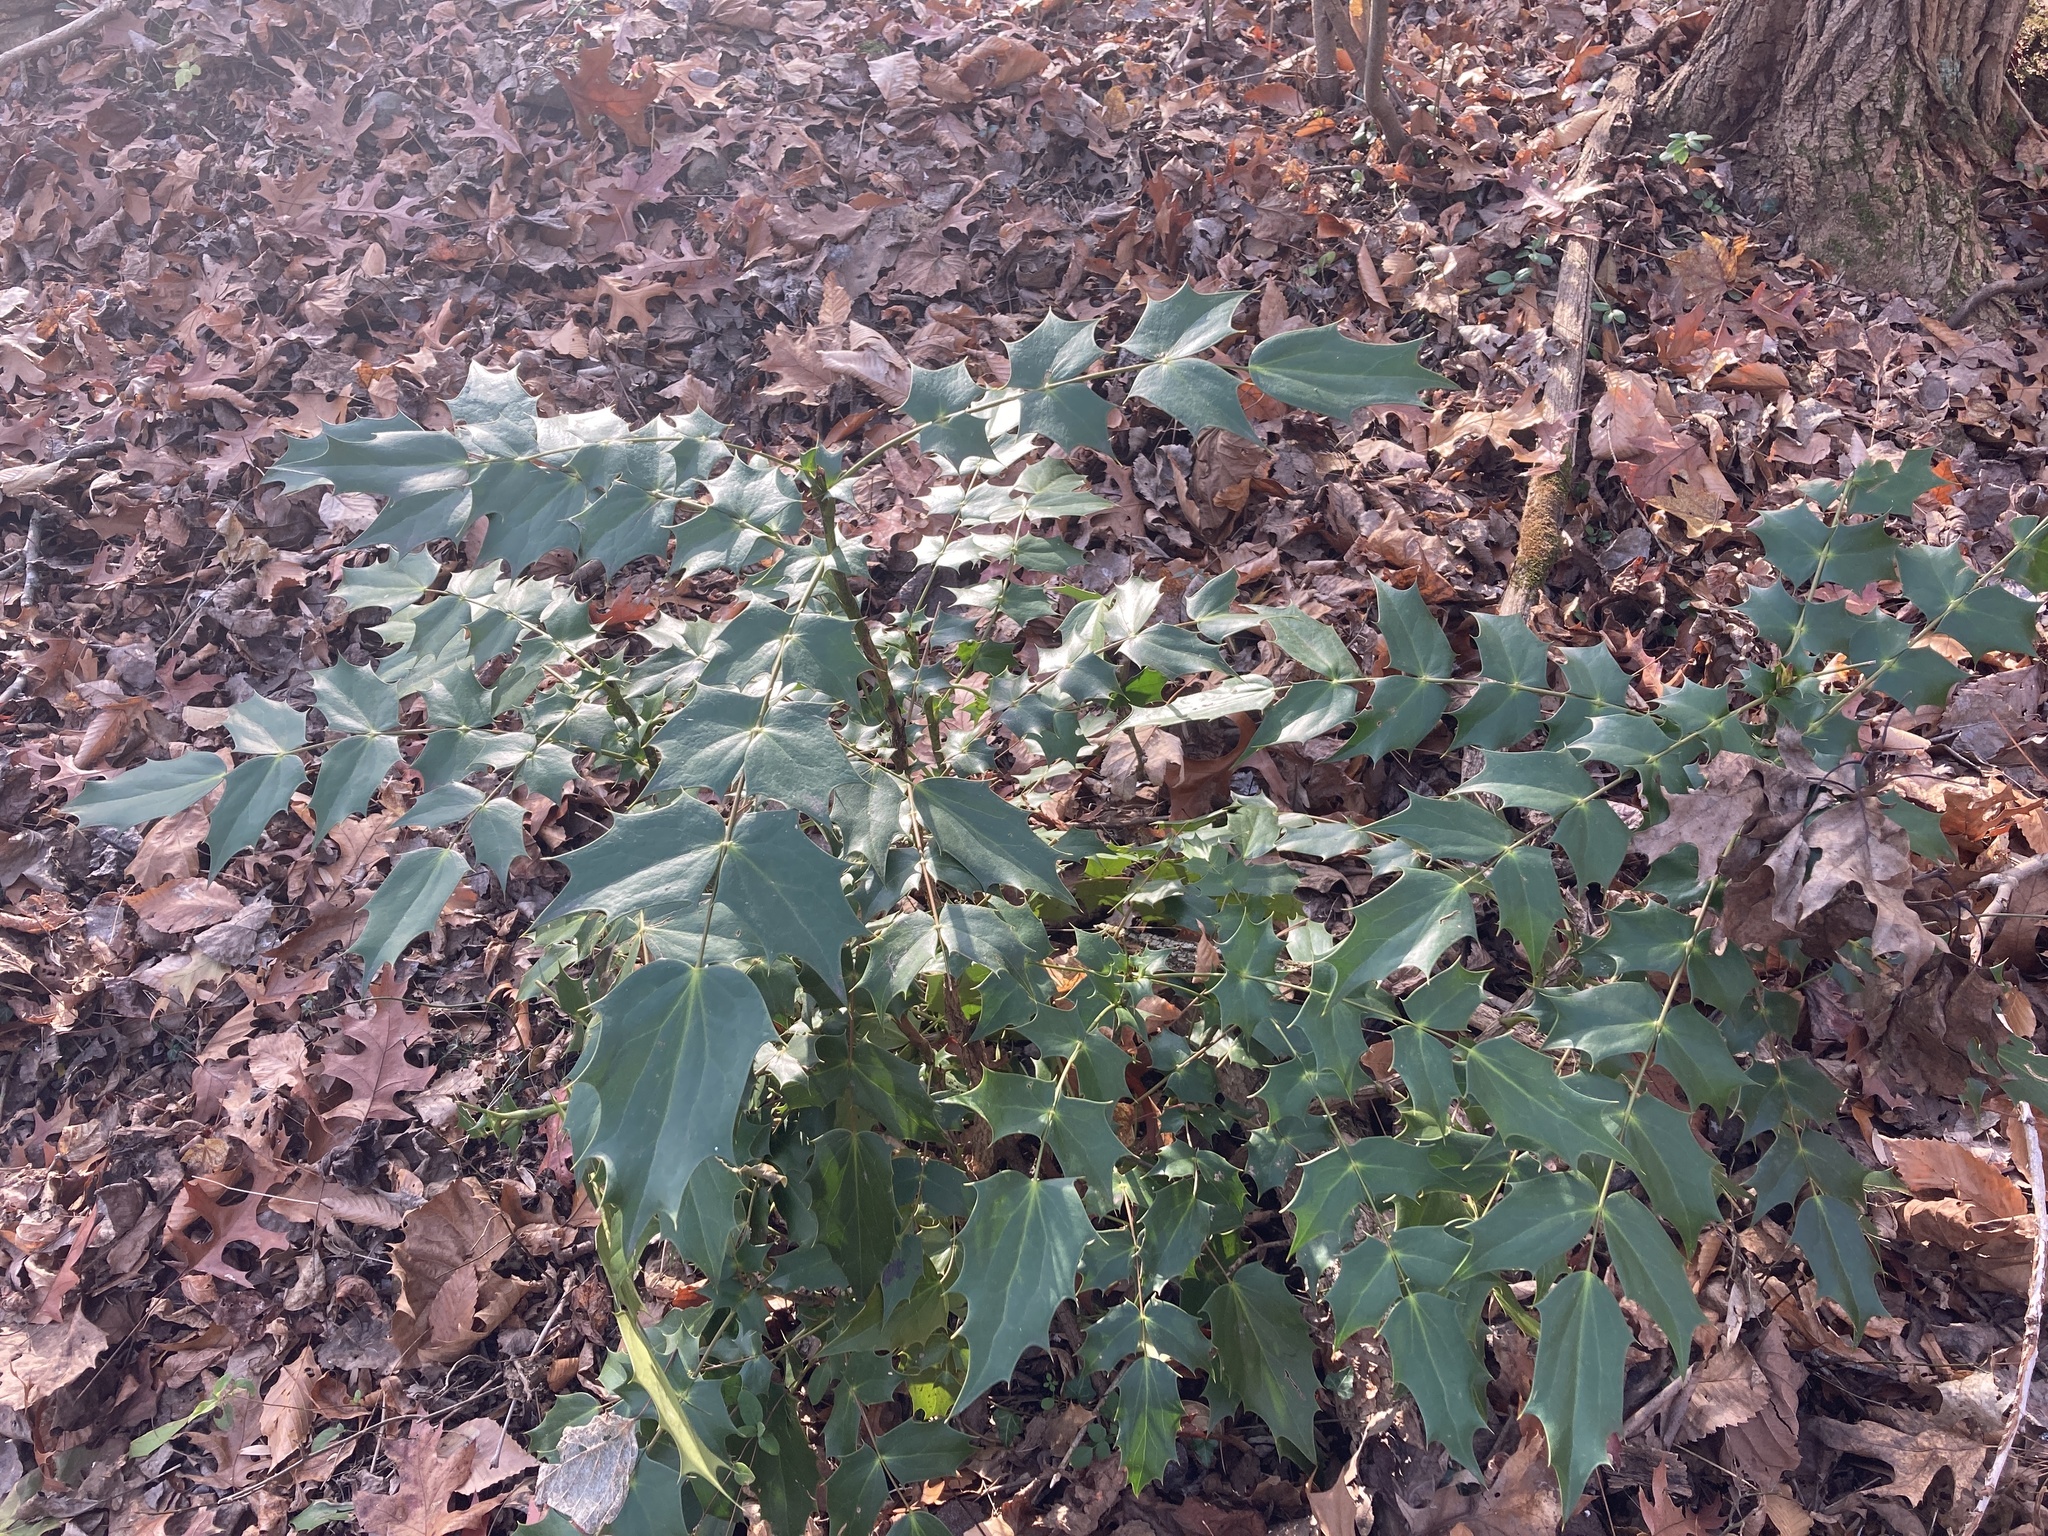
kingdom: Plantae
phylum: Tracheophyta
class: Magnoliopsida
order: Ranunculales
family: Berberidaceae
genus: Mahonia
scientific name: Mahonia bealei
